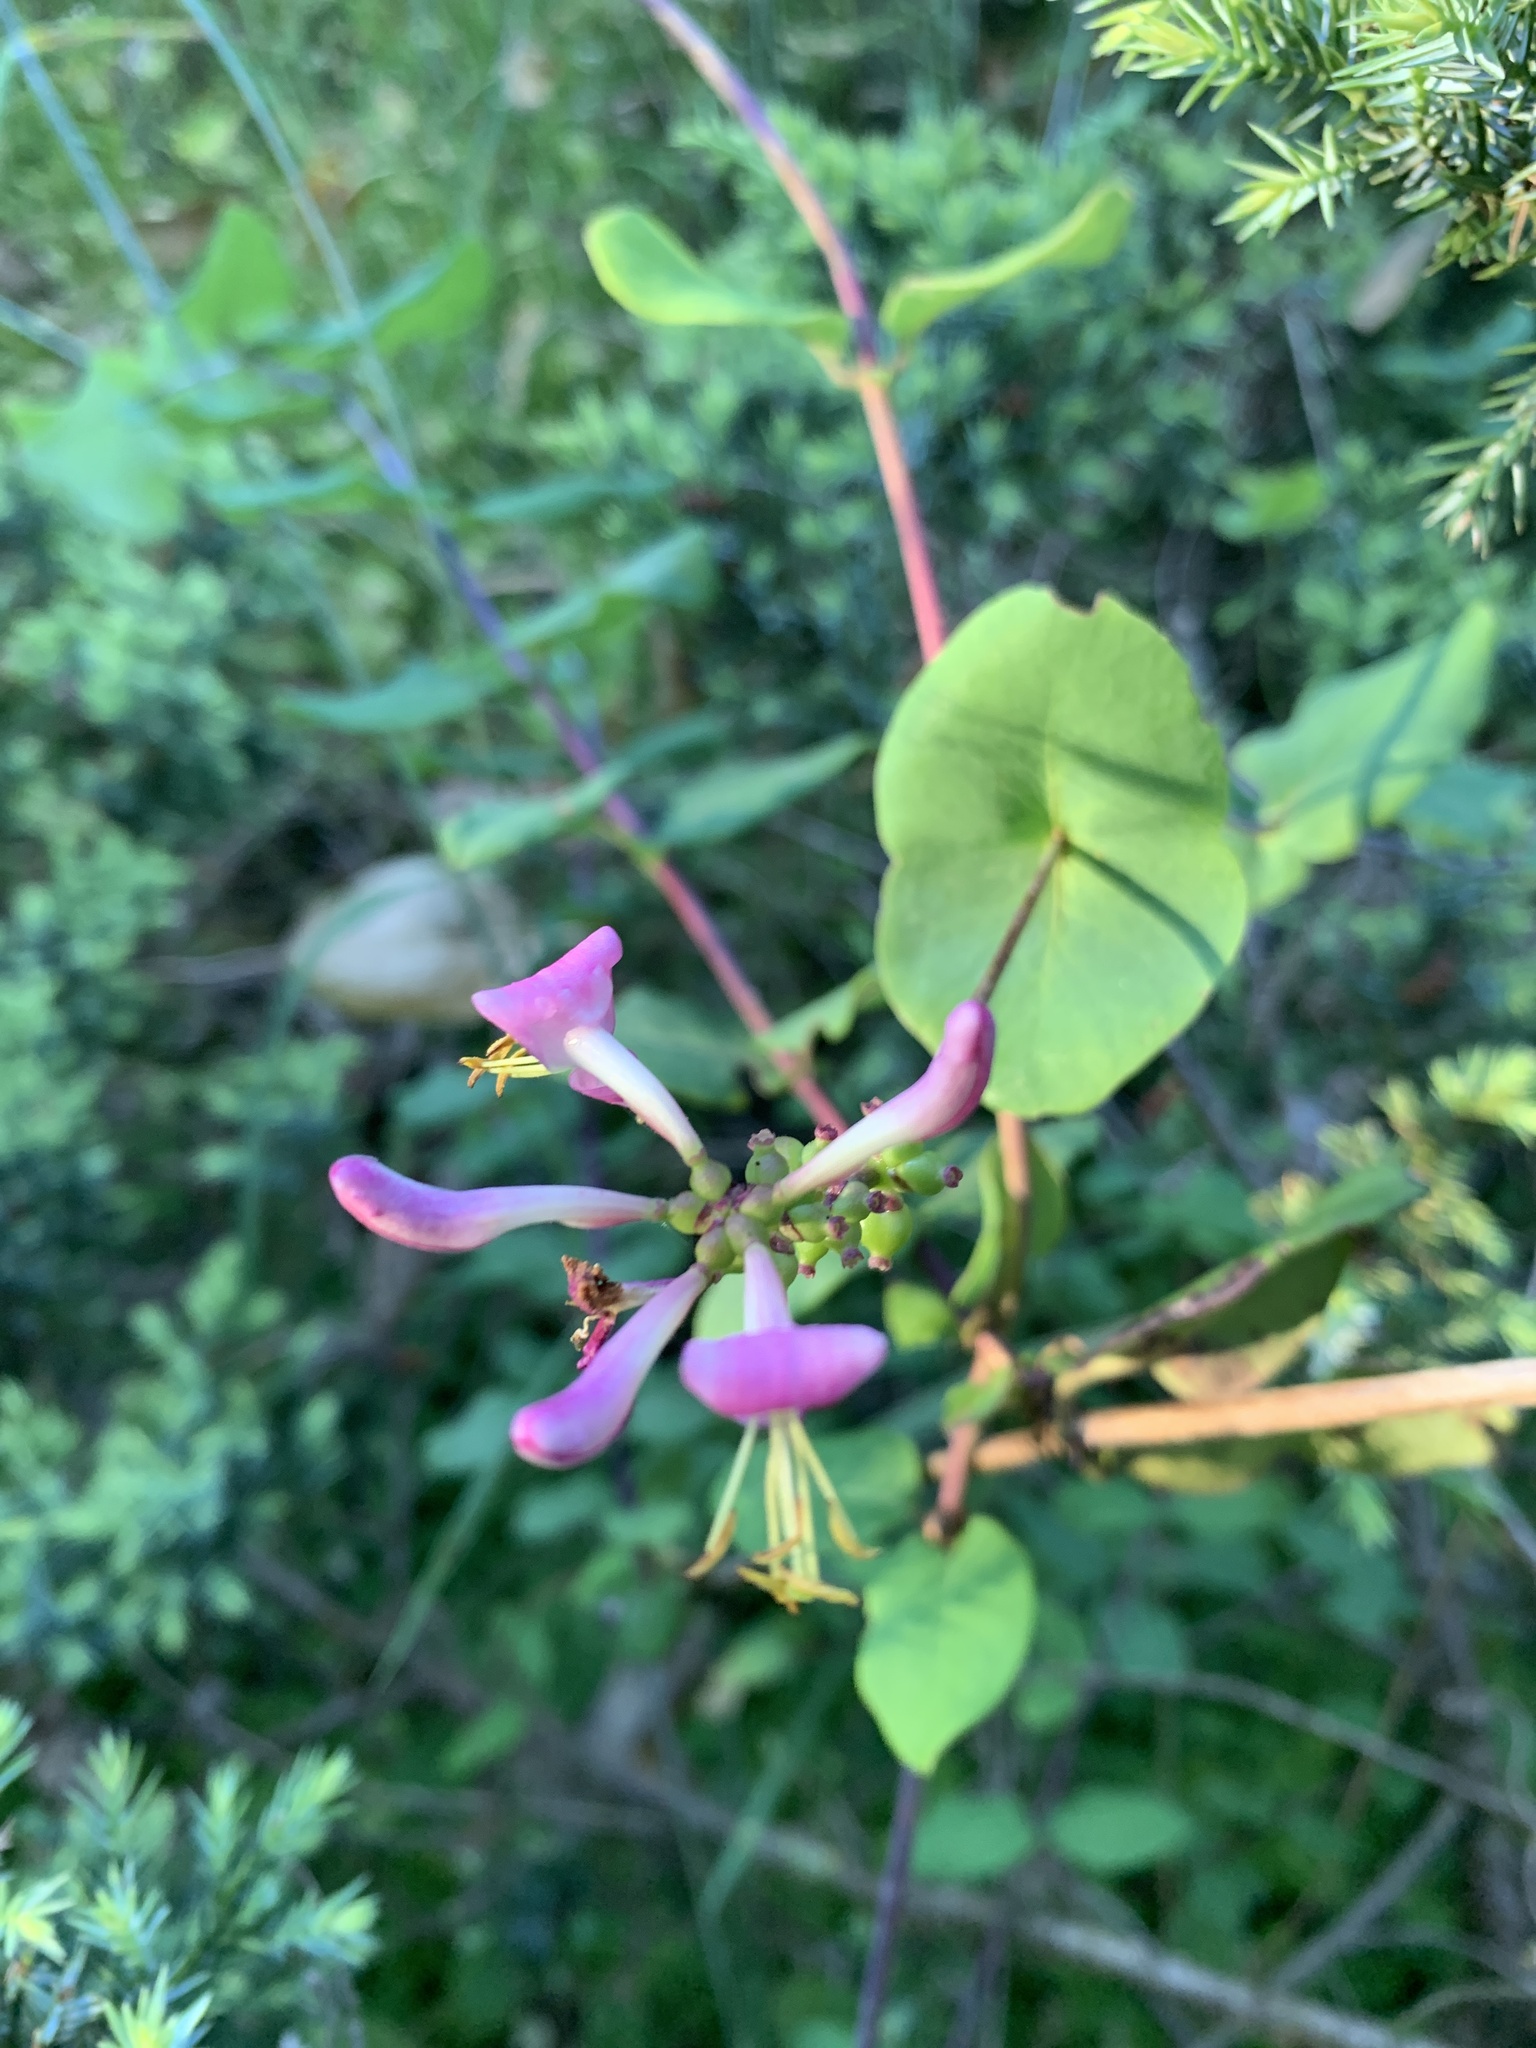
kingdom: Plantae
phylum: Tracheophyta
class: Magnoliopsida
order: Dipsacales
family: Caprifoliaceae
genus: Lonicera
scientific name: Lonicera hispidula
